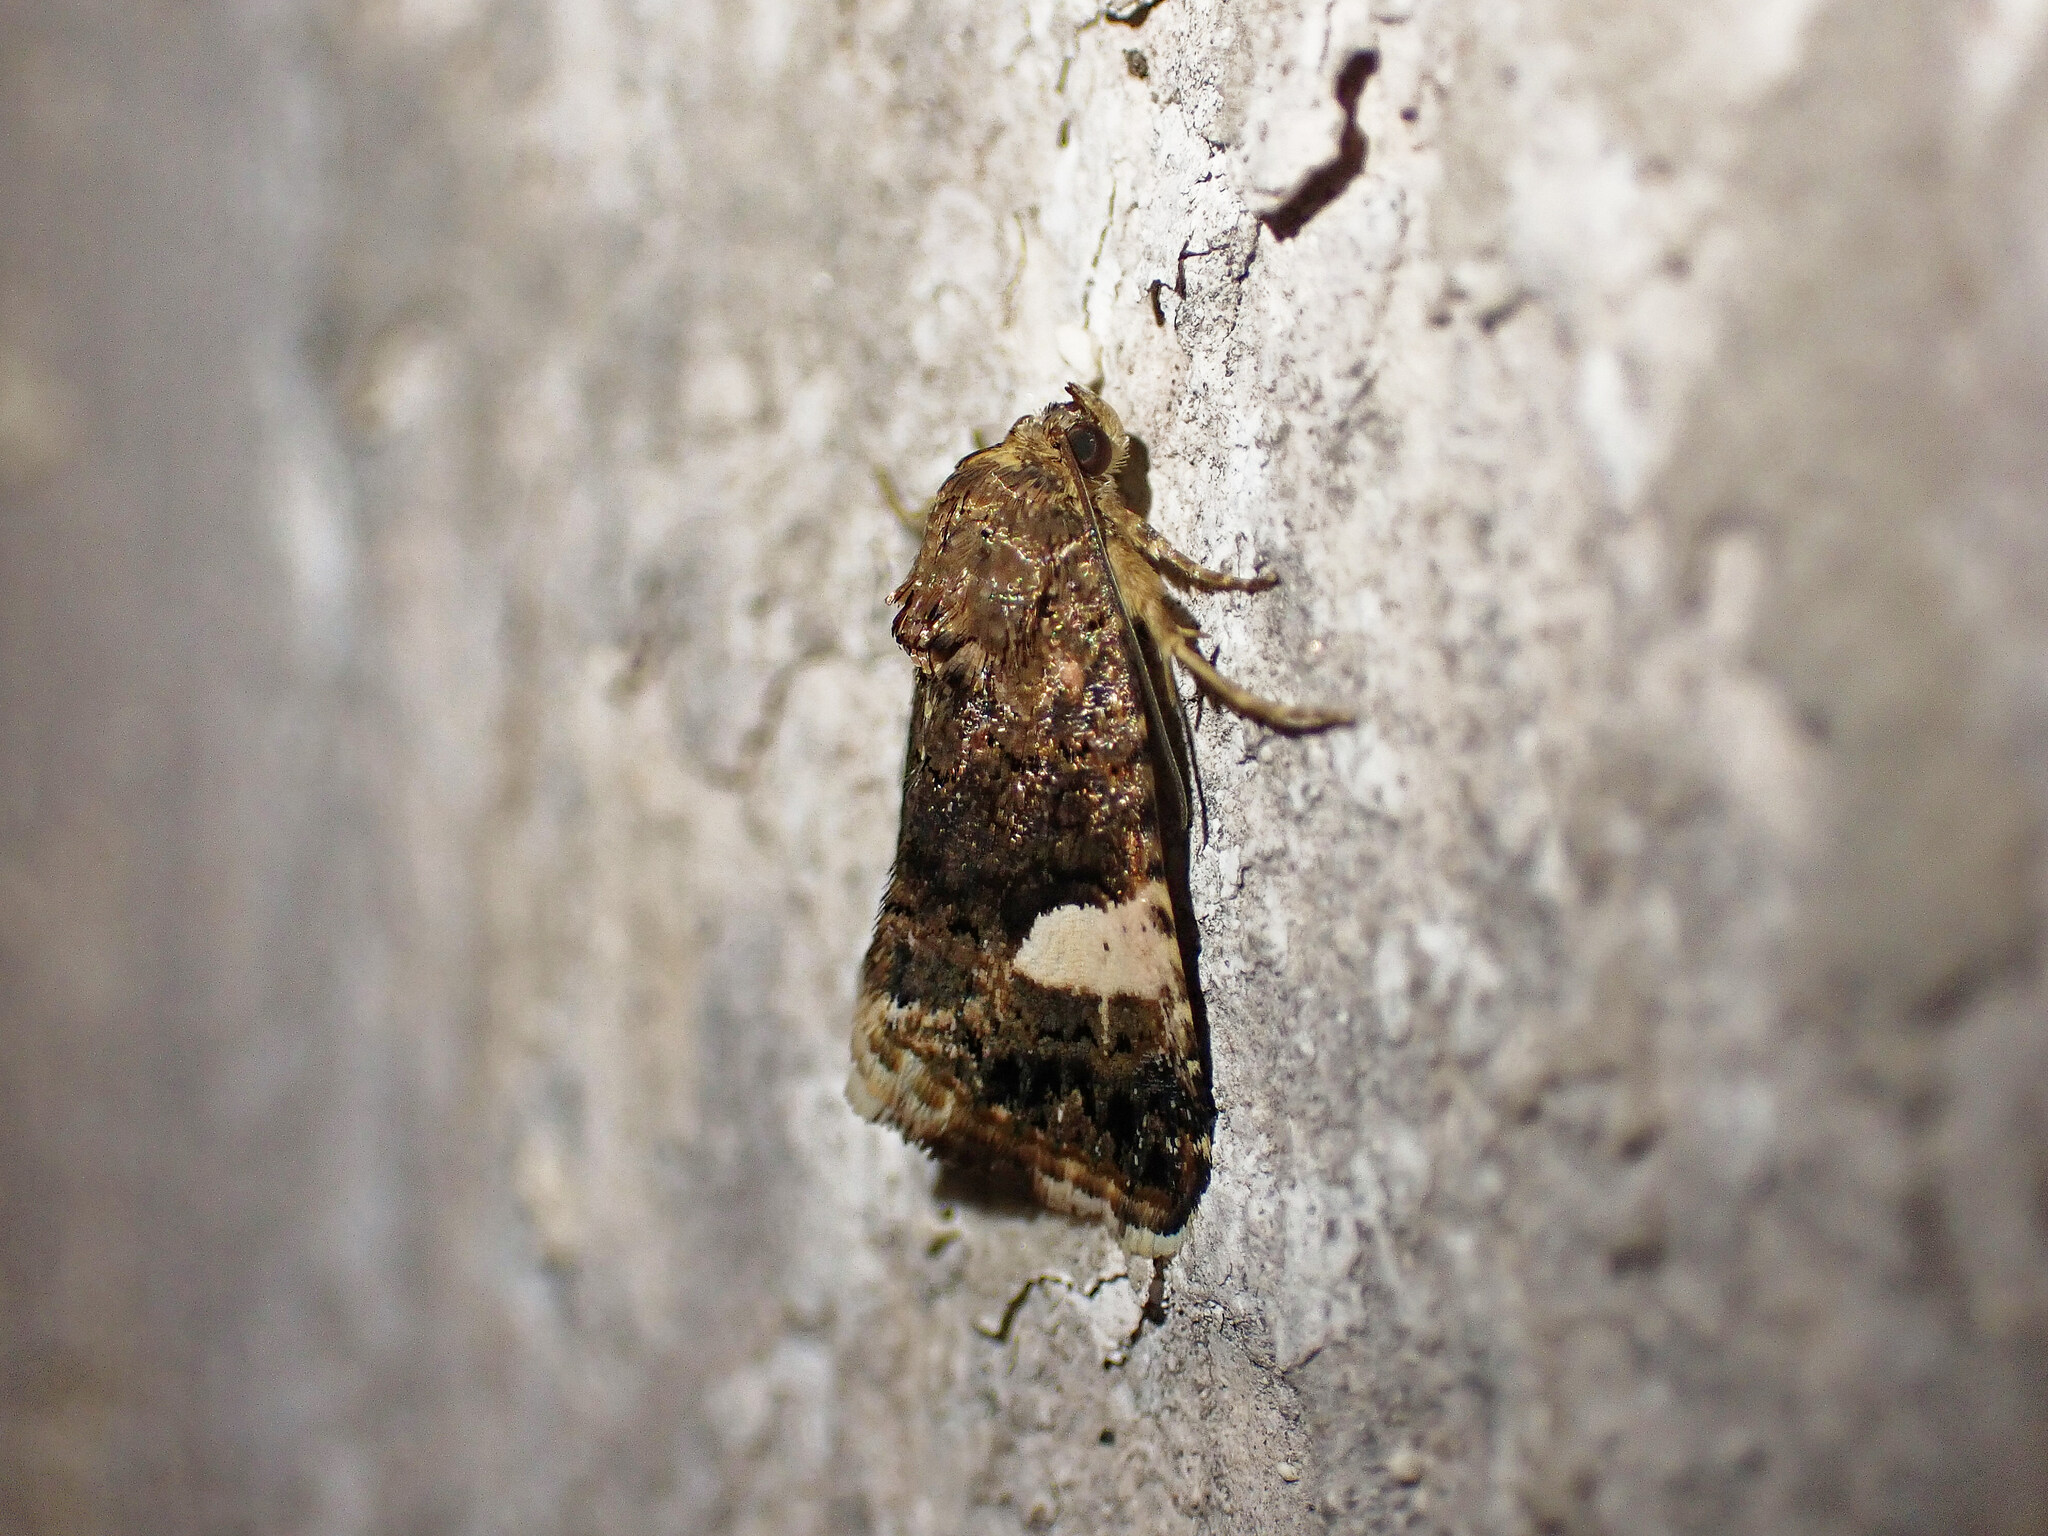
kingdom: Animalia
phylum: Arthropoda
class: Insecta
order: Lepidoptera
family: Erebidae
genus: Tyta
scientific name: Tyta luctuosa
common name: Four-spotted
